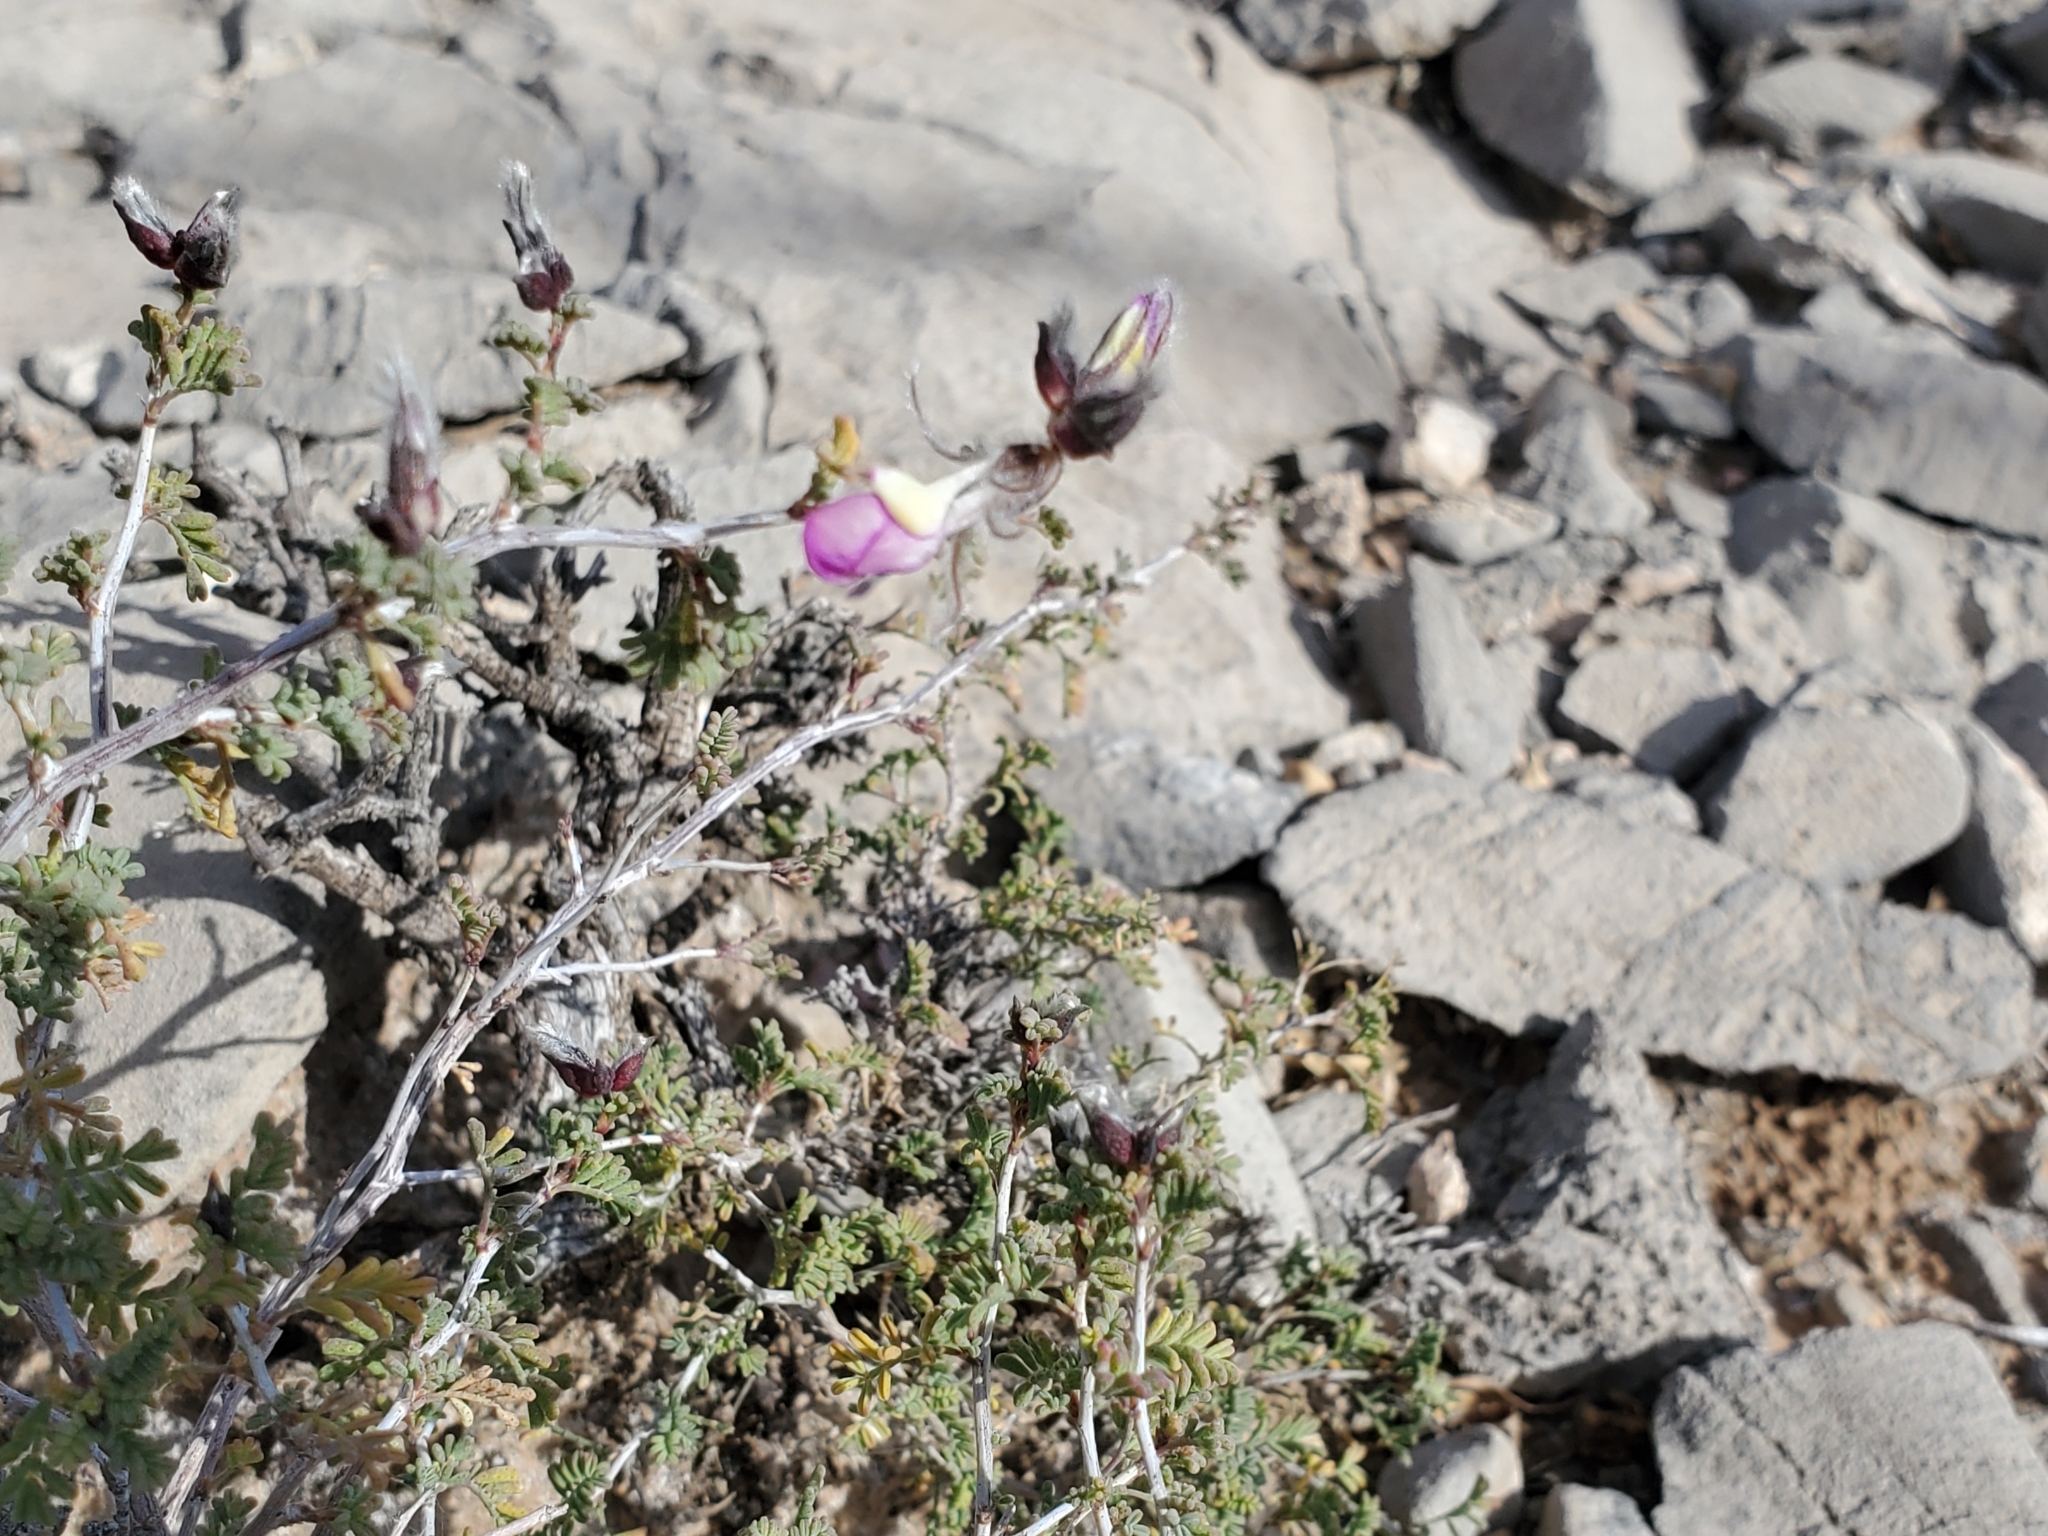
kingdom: Plantae
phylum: Tracheophyta
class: Magnoliopsida
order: Fabales
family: Fabaceae
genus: Dalea
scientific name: Dalea formosa
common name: Feather-plume dalea
